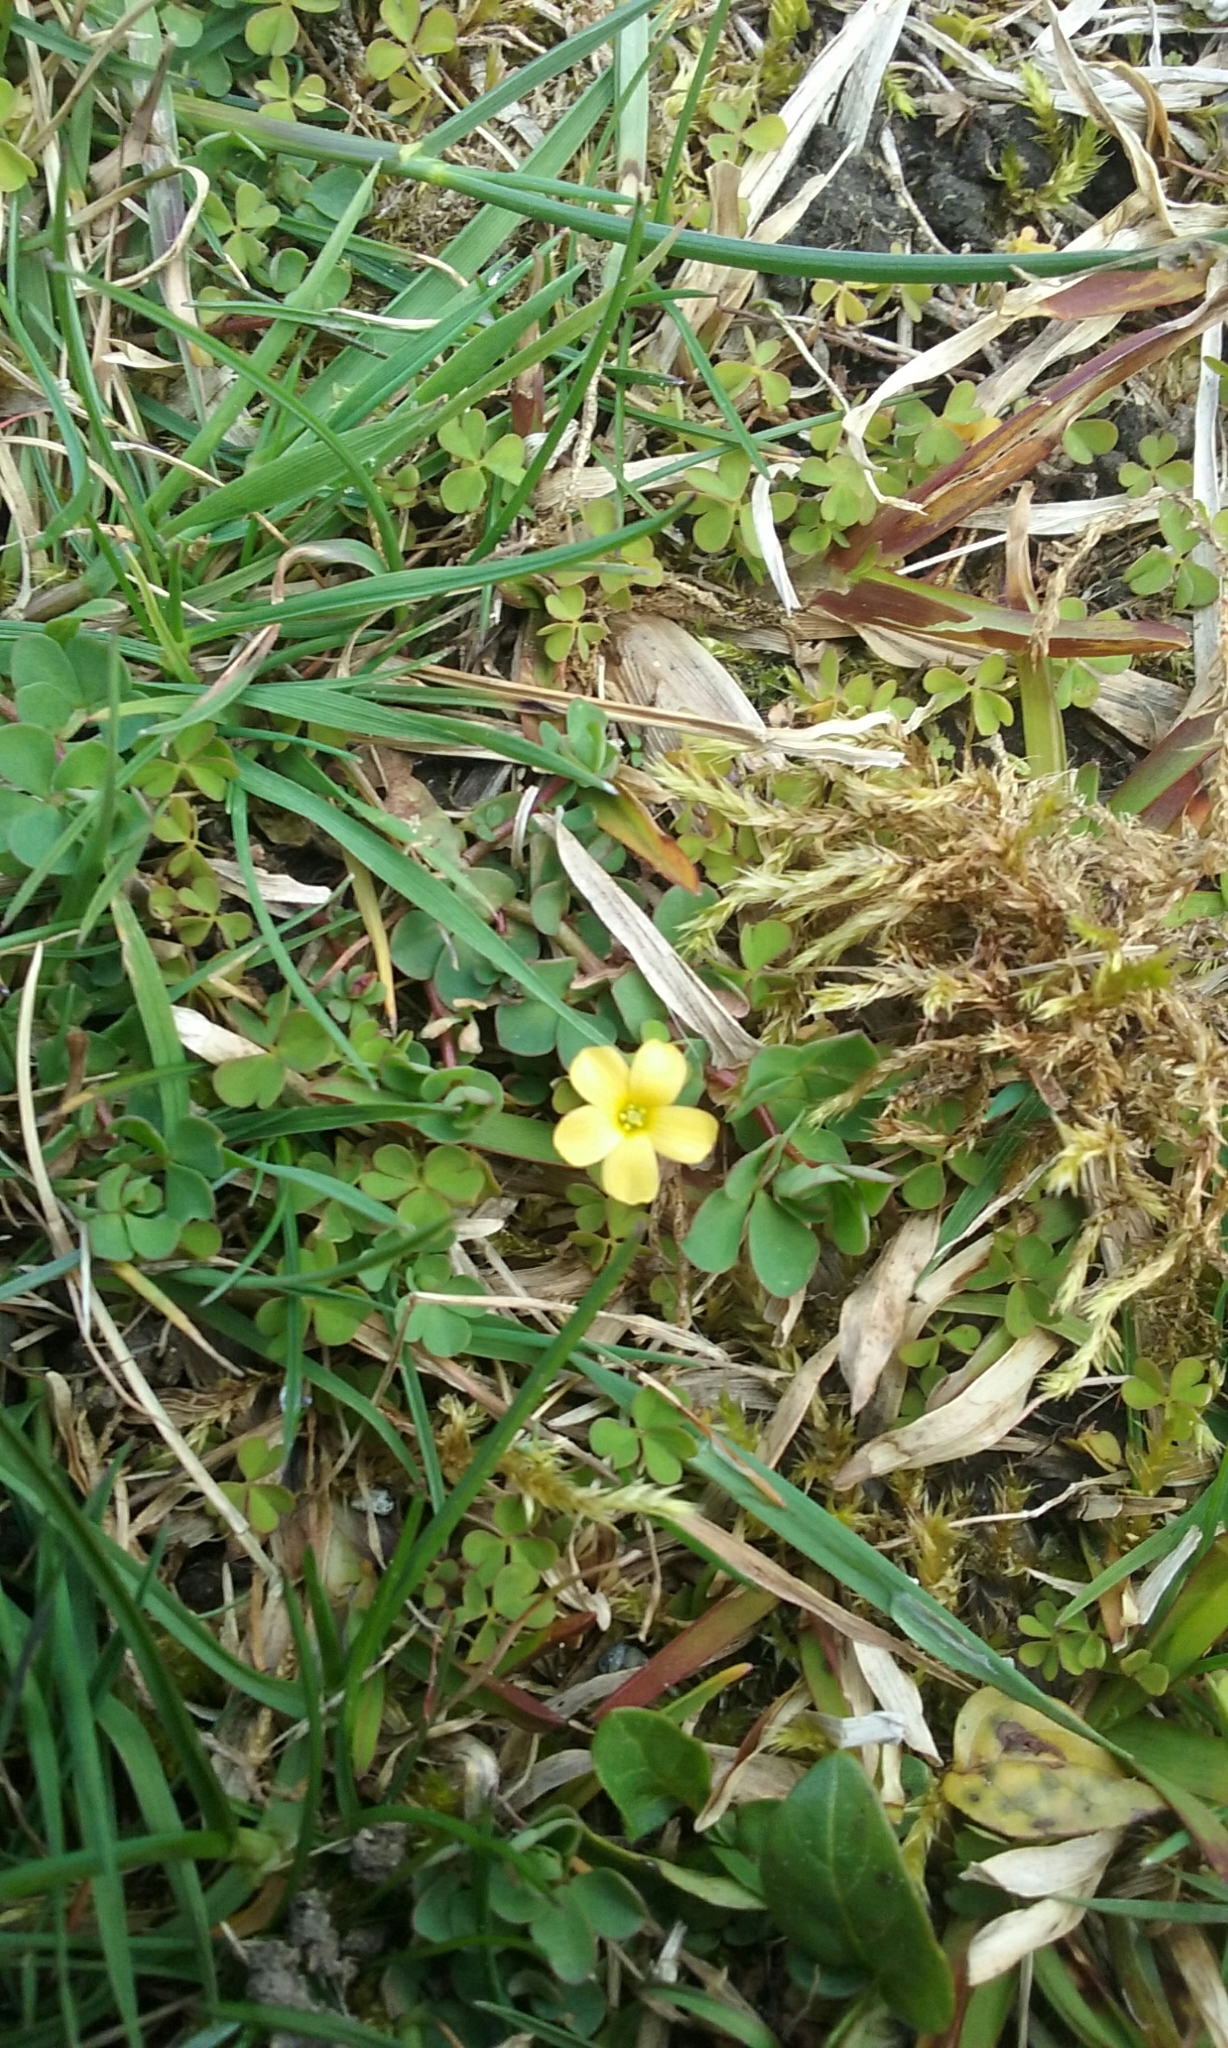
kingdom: Plantae
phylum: Tracheophyta
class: Magnoliopsida
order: Oxalidales
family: Oxalidaceae
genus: Oxalis
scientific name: Oxalis exilis
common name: Least yellow-sorrel
